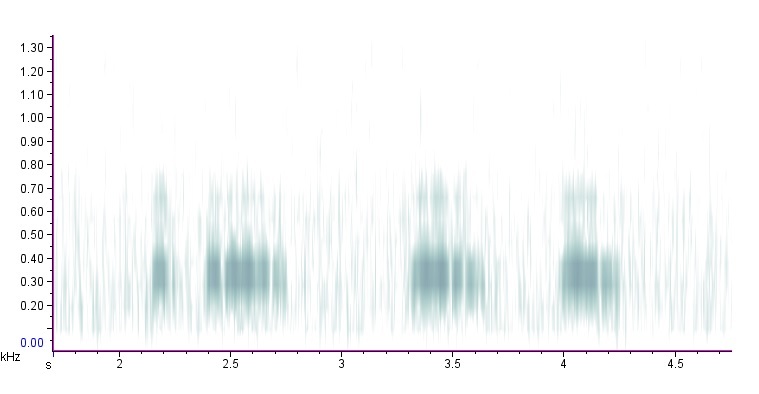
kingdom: Animalia
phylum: Chordata
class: Aves
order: Strigiformes
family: Strigidae
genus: Bubo
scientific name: Bubo virginianus
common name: Great horned owl
